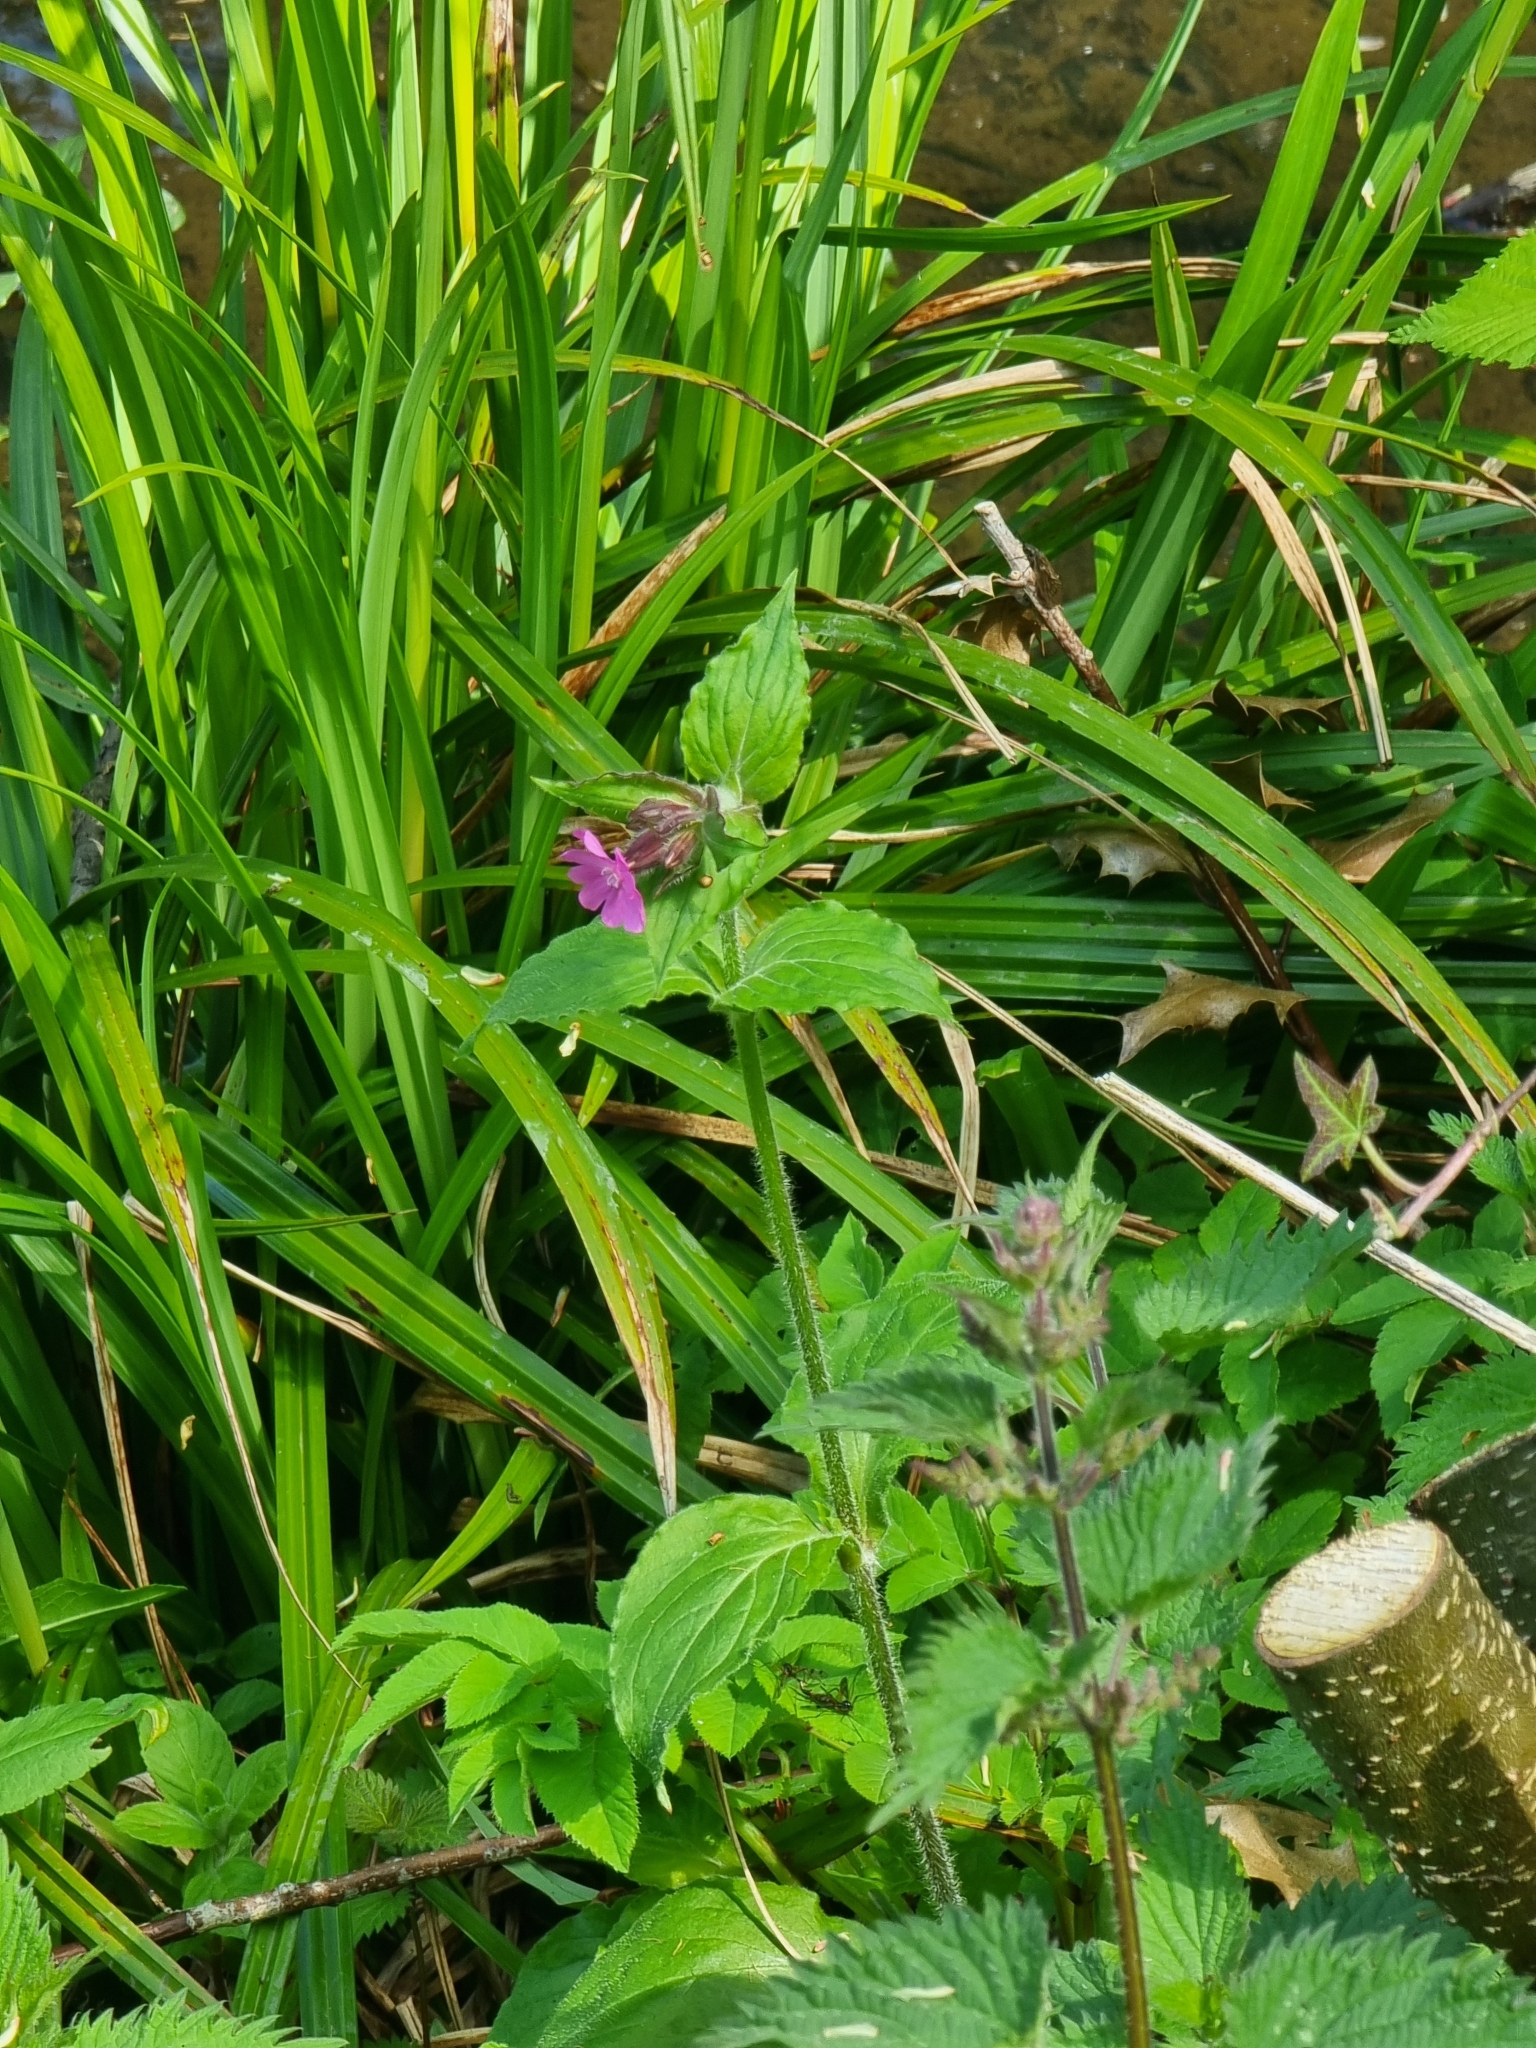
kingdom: Plantae
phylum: Tracheophyta
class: Magnoliopsida
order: Caryophyllales
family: Caryophyllaceae
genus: Silene
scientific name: Silene dioica
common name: Red campion
